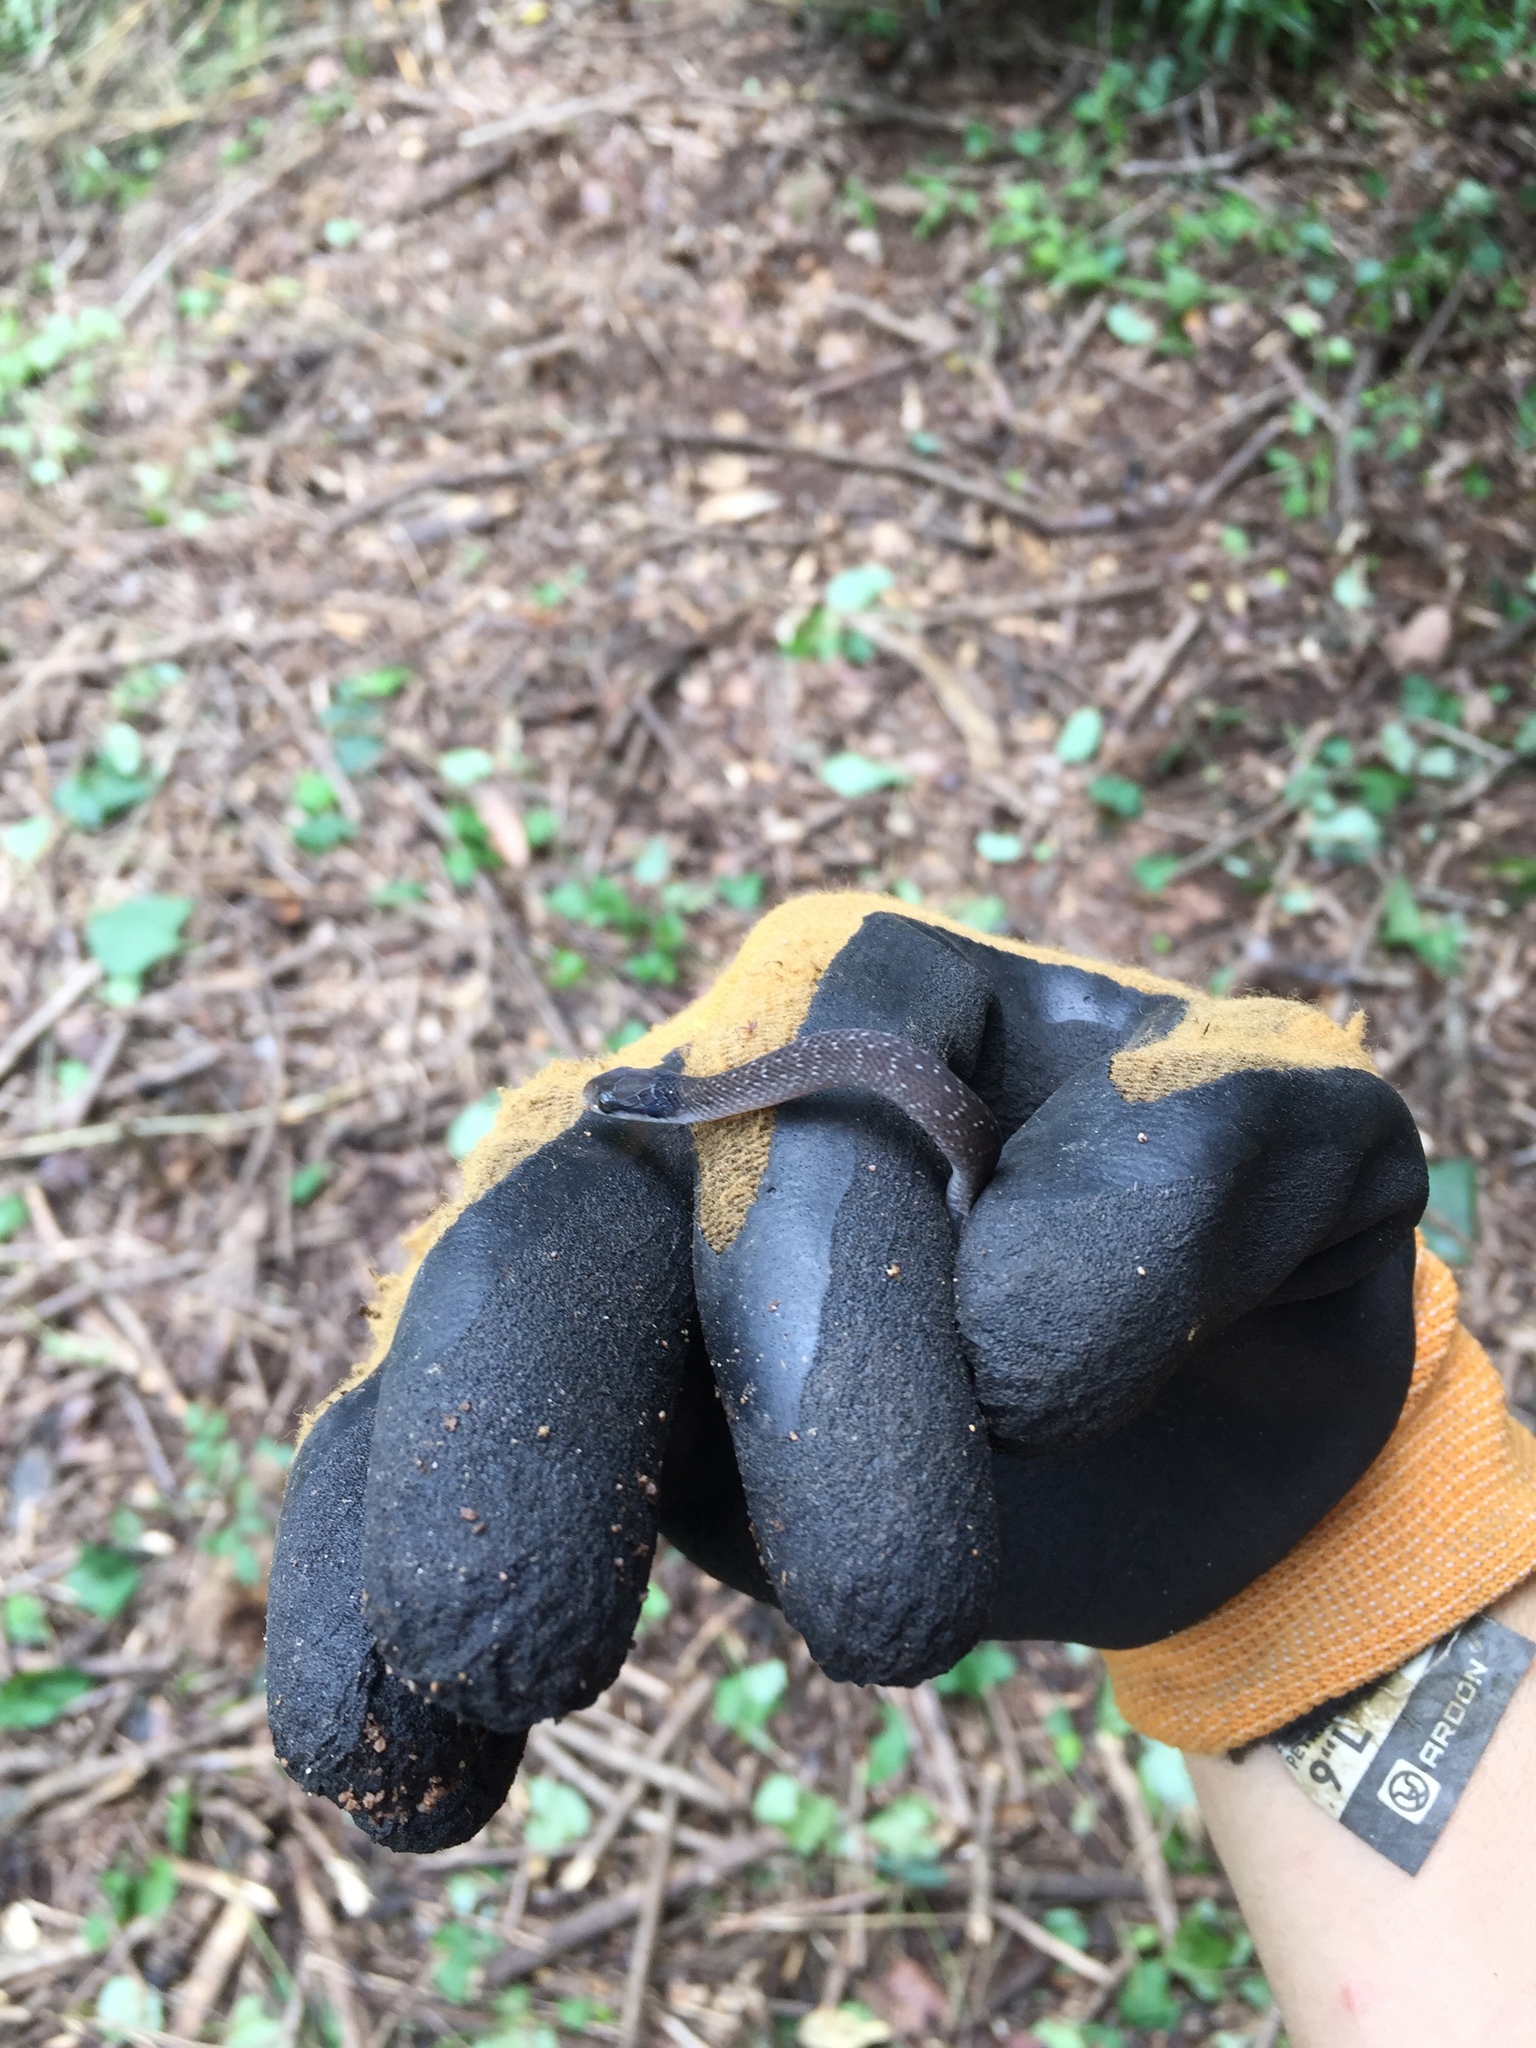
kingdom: Animalia
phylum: Chordata
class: Squamata
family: Colubridae
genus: Crotaphopeltis
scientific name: Crotaphopeltis hotamboeia
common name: Red-lipped snake
